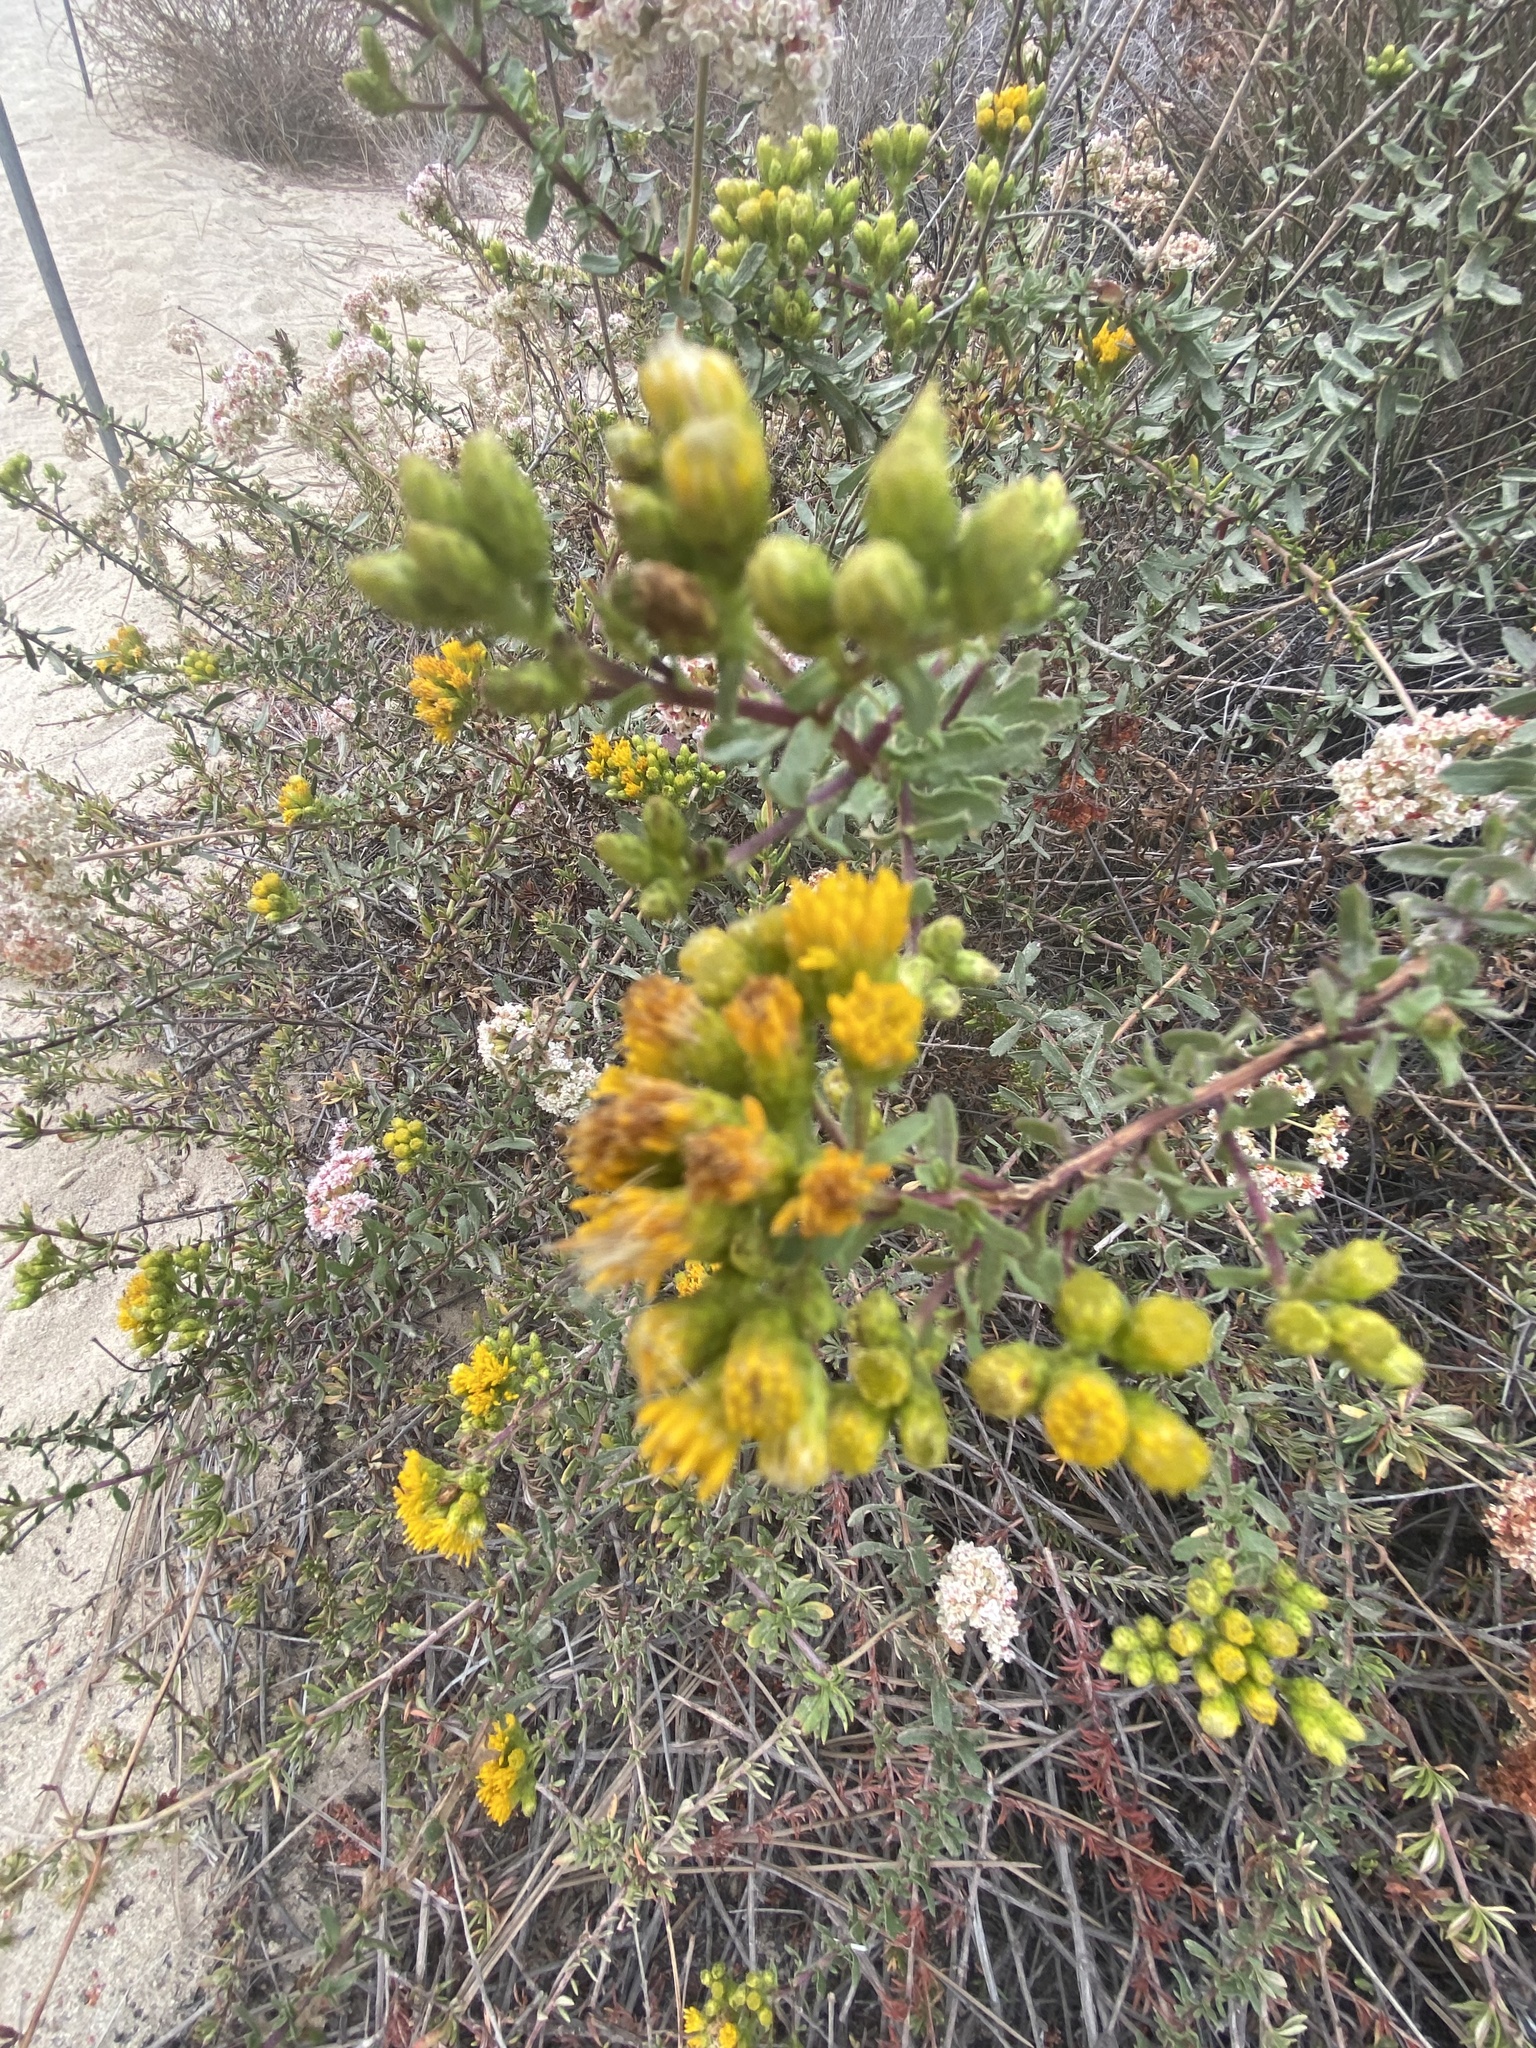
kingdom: Plantae
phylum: Tracheophyta
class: Magnoliopsida
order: Asterales
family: Asteraceae
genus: Isocoma
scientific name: Isocoma menziesii
